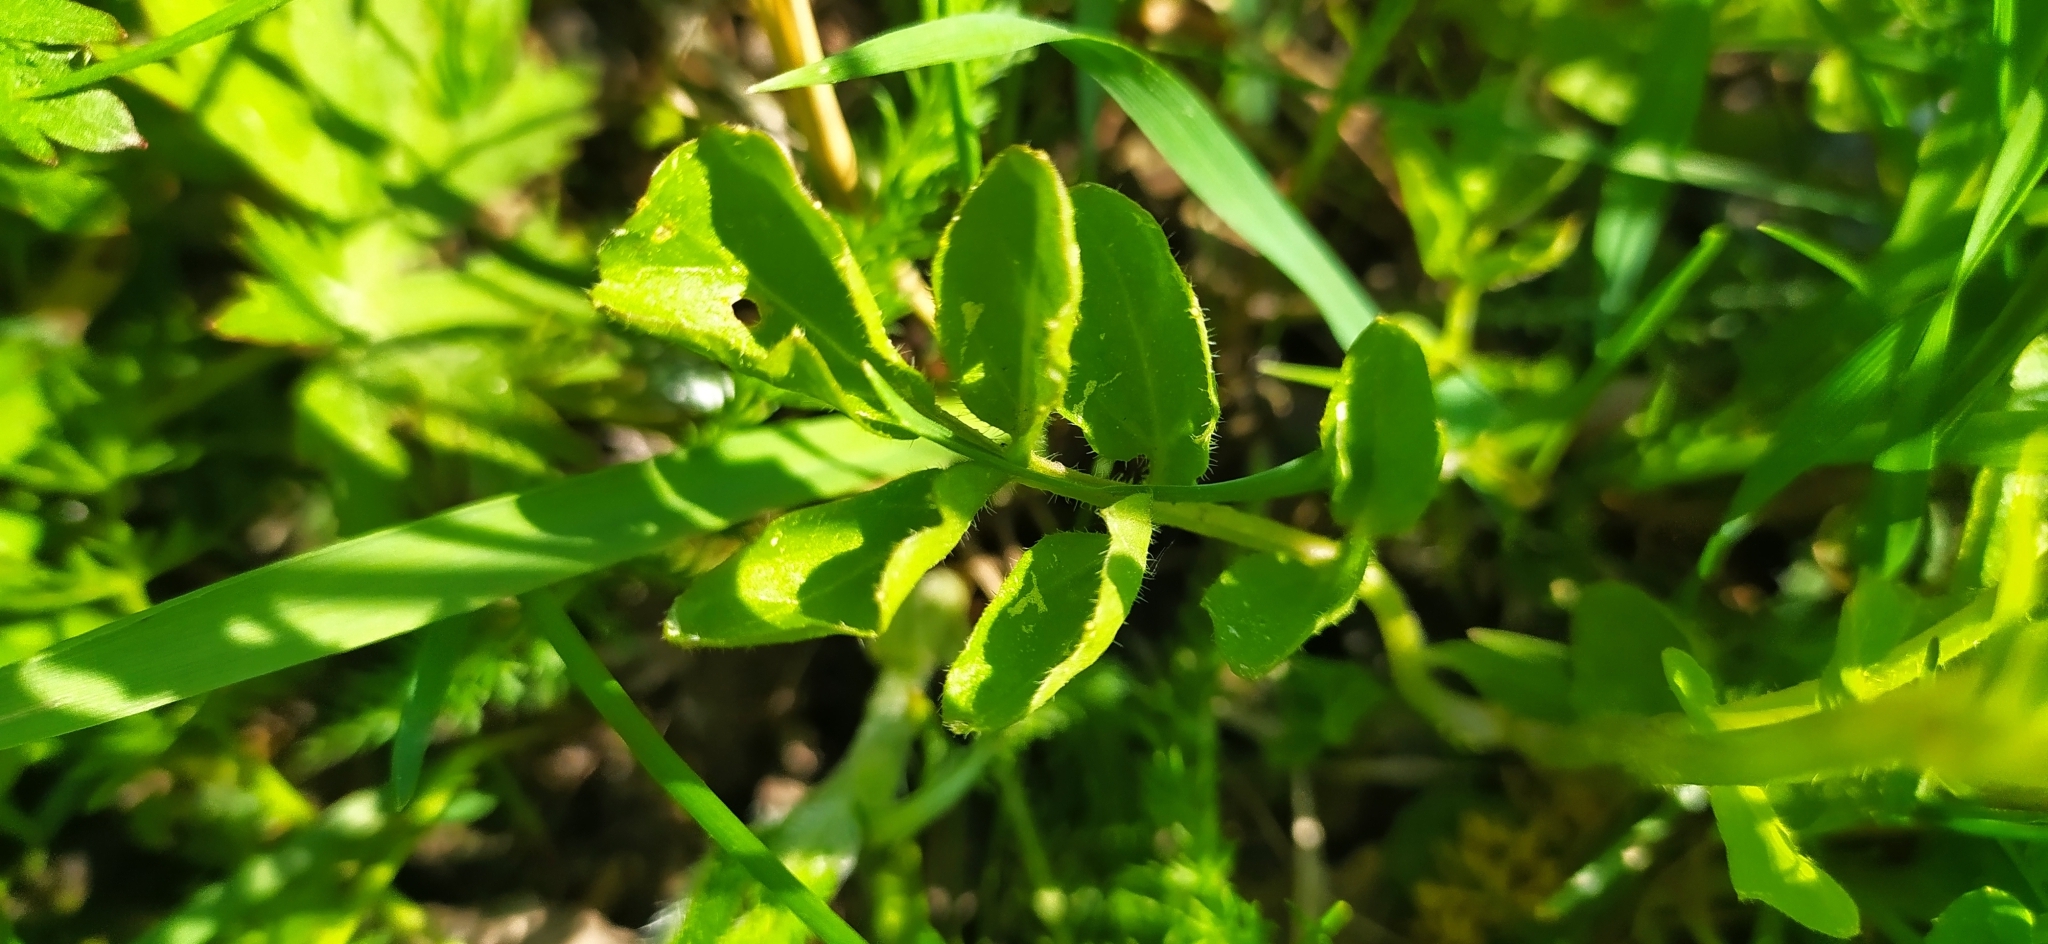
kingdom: Plantae
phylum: Tracheophyta
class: Magnoliopsida
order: Brassicales
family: Brassicaceae
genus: Cardamine
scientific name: Cardamine amara
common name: Large bitter-cress
